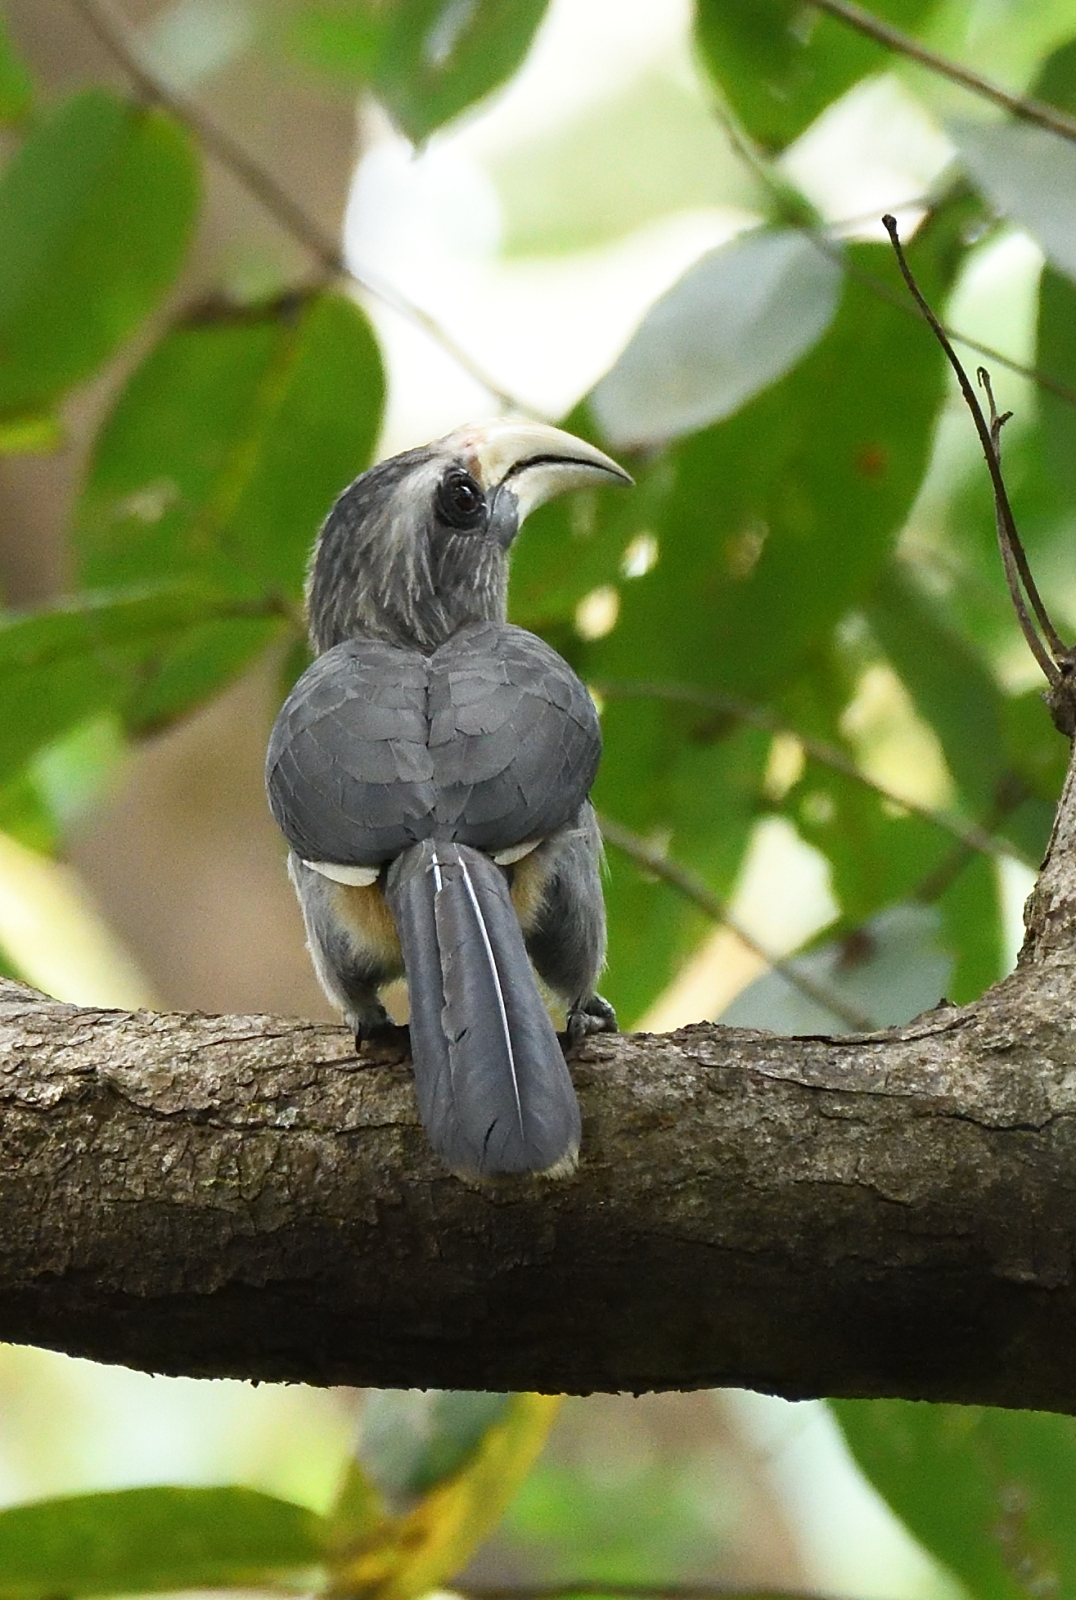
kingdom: Animalia
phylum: Chordata
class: Aves
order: Bucerotiformes
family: Bucerotidae
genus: Ocyceros
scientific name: Ocyceros griseus
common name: Malabar grey hornbill
